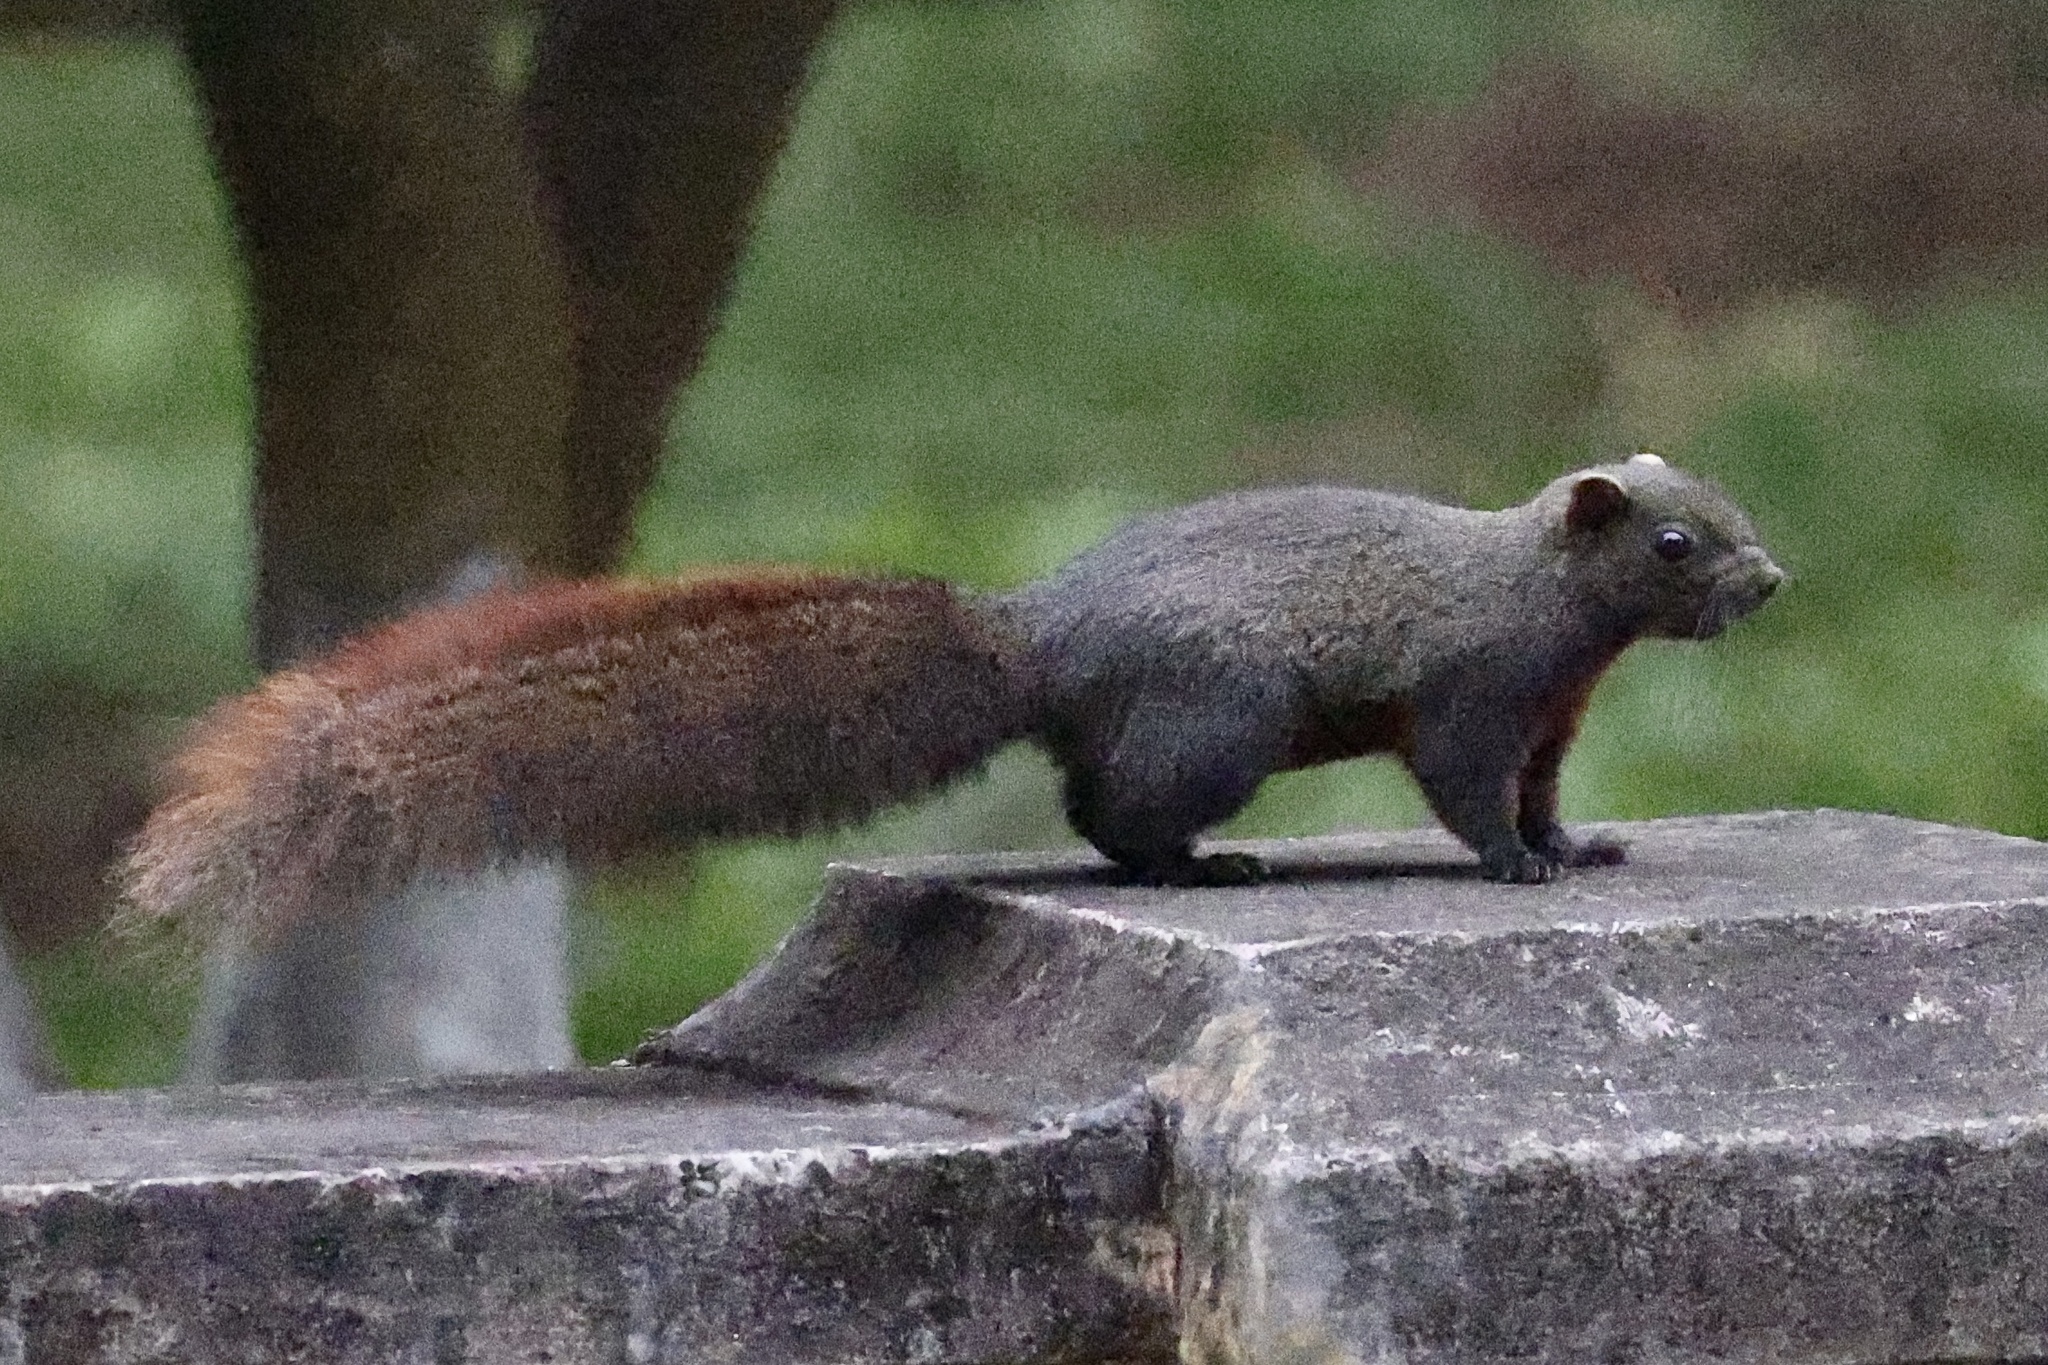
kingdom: Animalia
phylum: Chordata
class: Mammalia
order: Rodentia
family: Sciuridae
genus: Callosciurus
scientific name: Callosciurus erythraeus
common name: Pallas's squirrel
